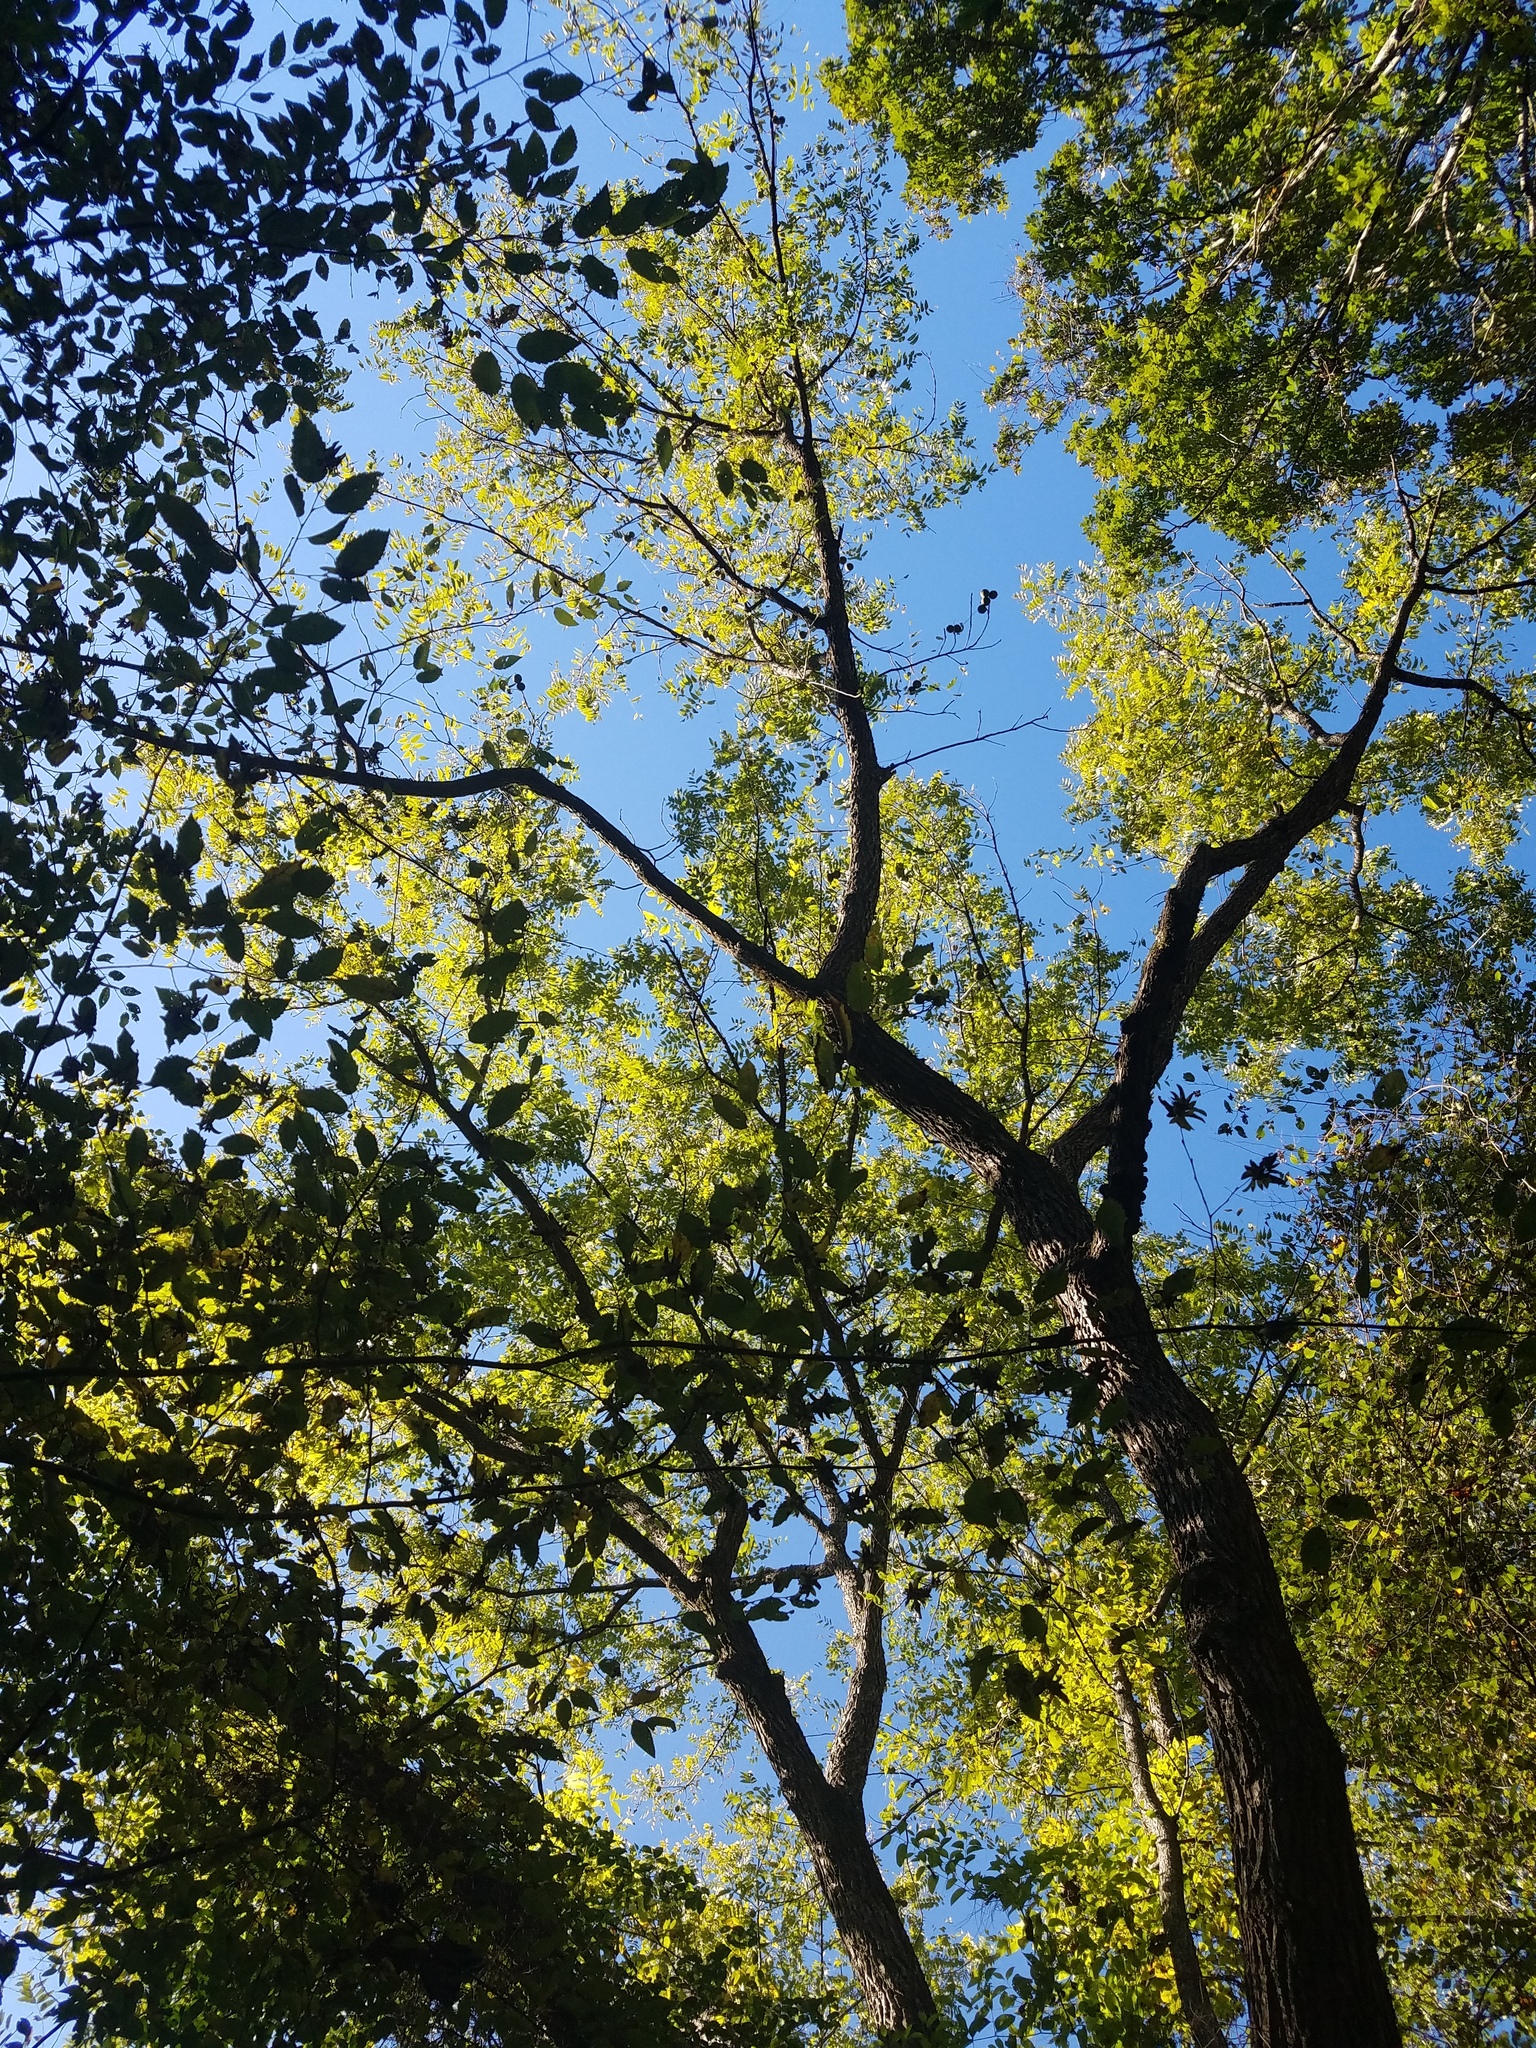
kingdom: Plantae
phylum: Tracheophyta
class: Magnoliopsida
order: Fagales
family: Juglandaceae
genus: Juglans
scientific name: Juglans nigra
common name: Black walnut
